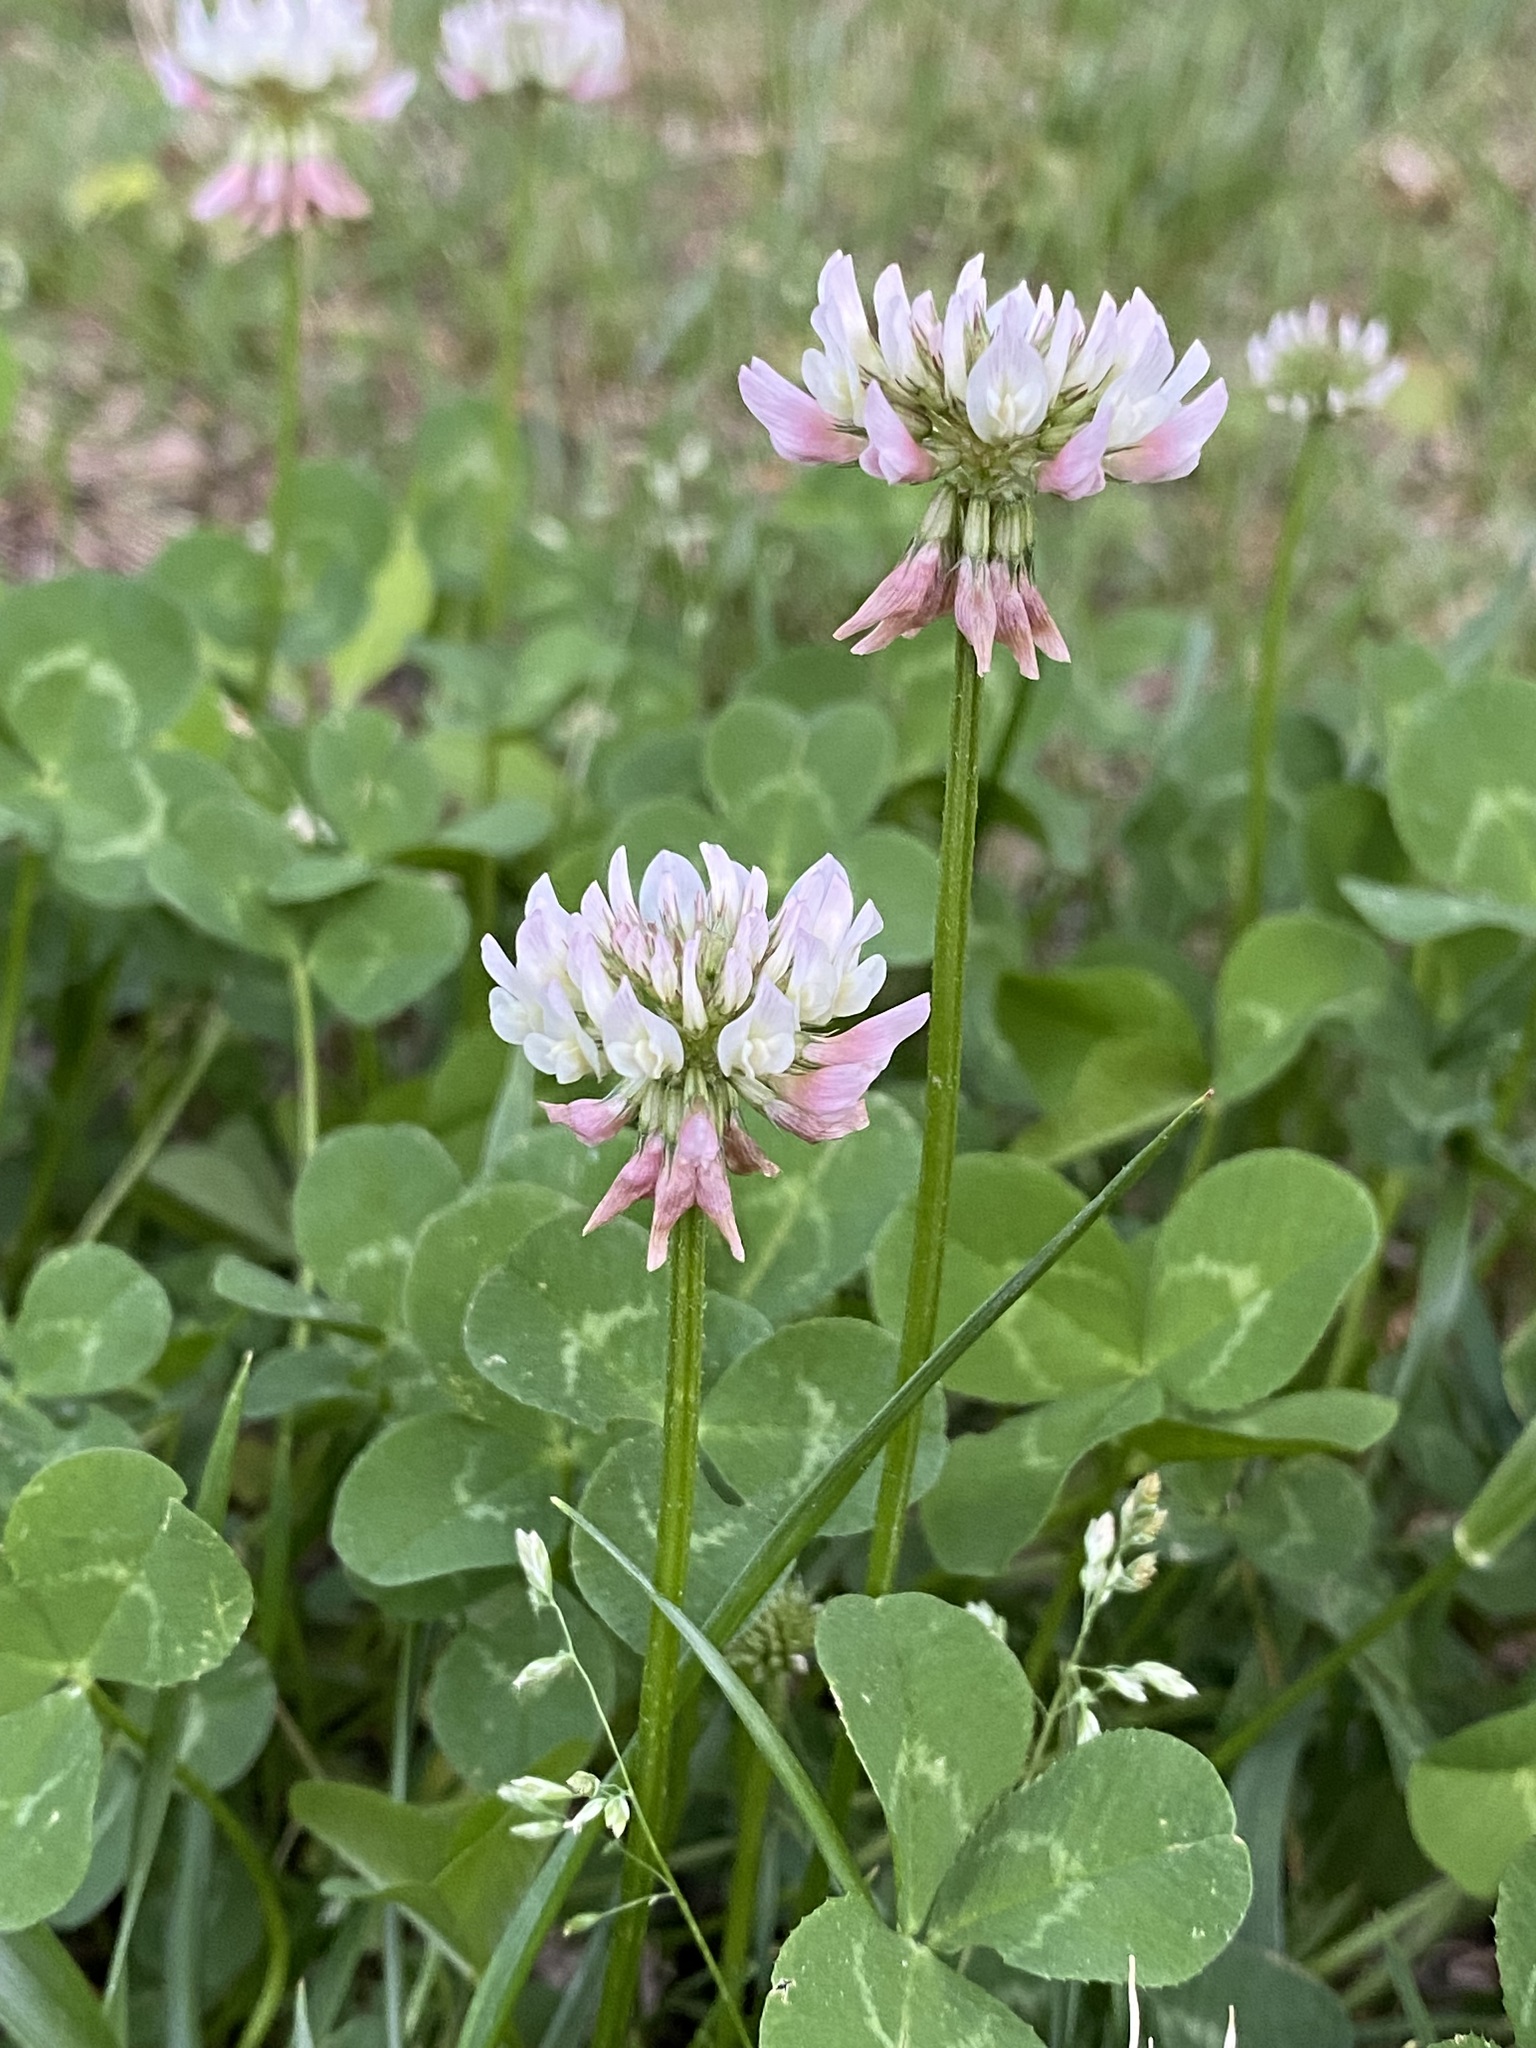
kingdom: Plantae
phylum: Tracheophyta
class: Magnoliopsida
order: Fabales
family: Fabaceae
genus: Trifolium
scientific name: Trifolium repens
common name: White clover
